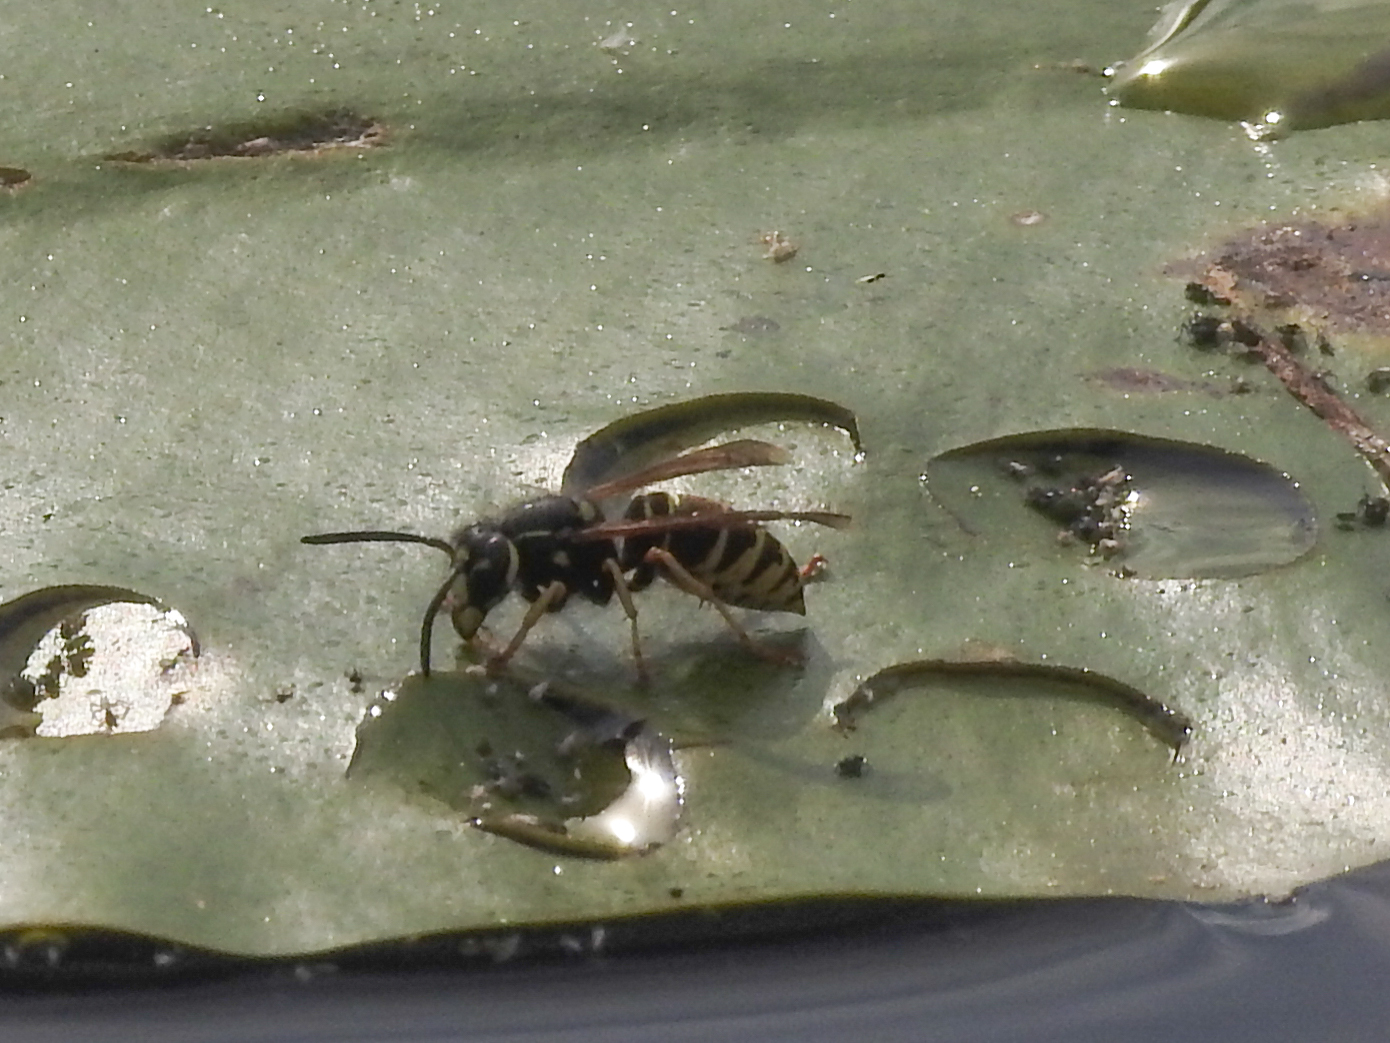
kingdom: Animalia
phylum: Arthropoda
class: Insecta
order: Hymenoptera
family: Vespidae
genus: Vespula
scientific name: Vespula vidua
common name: Widow yellowjacket
